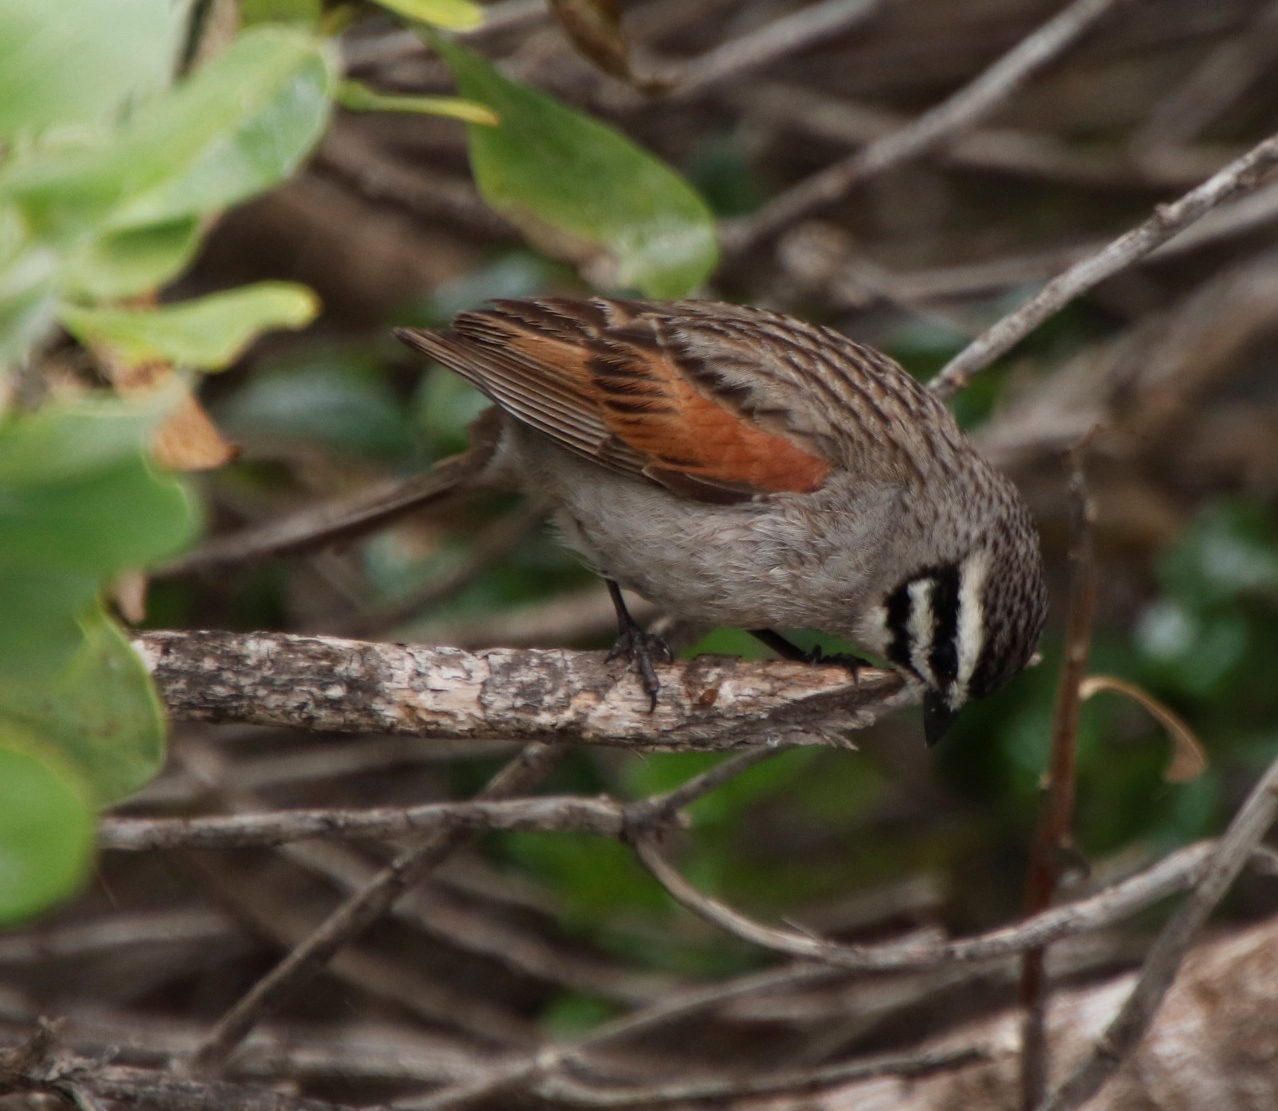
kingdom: Animalia
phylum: Chordata
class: Aves
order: Passeriformes
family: Emberizidae
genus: Emberiza
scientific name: Emberiza capensis
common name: Cape bunting
